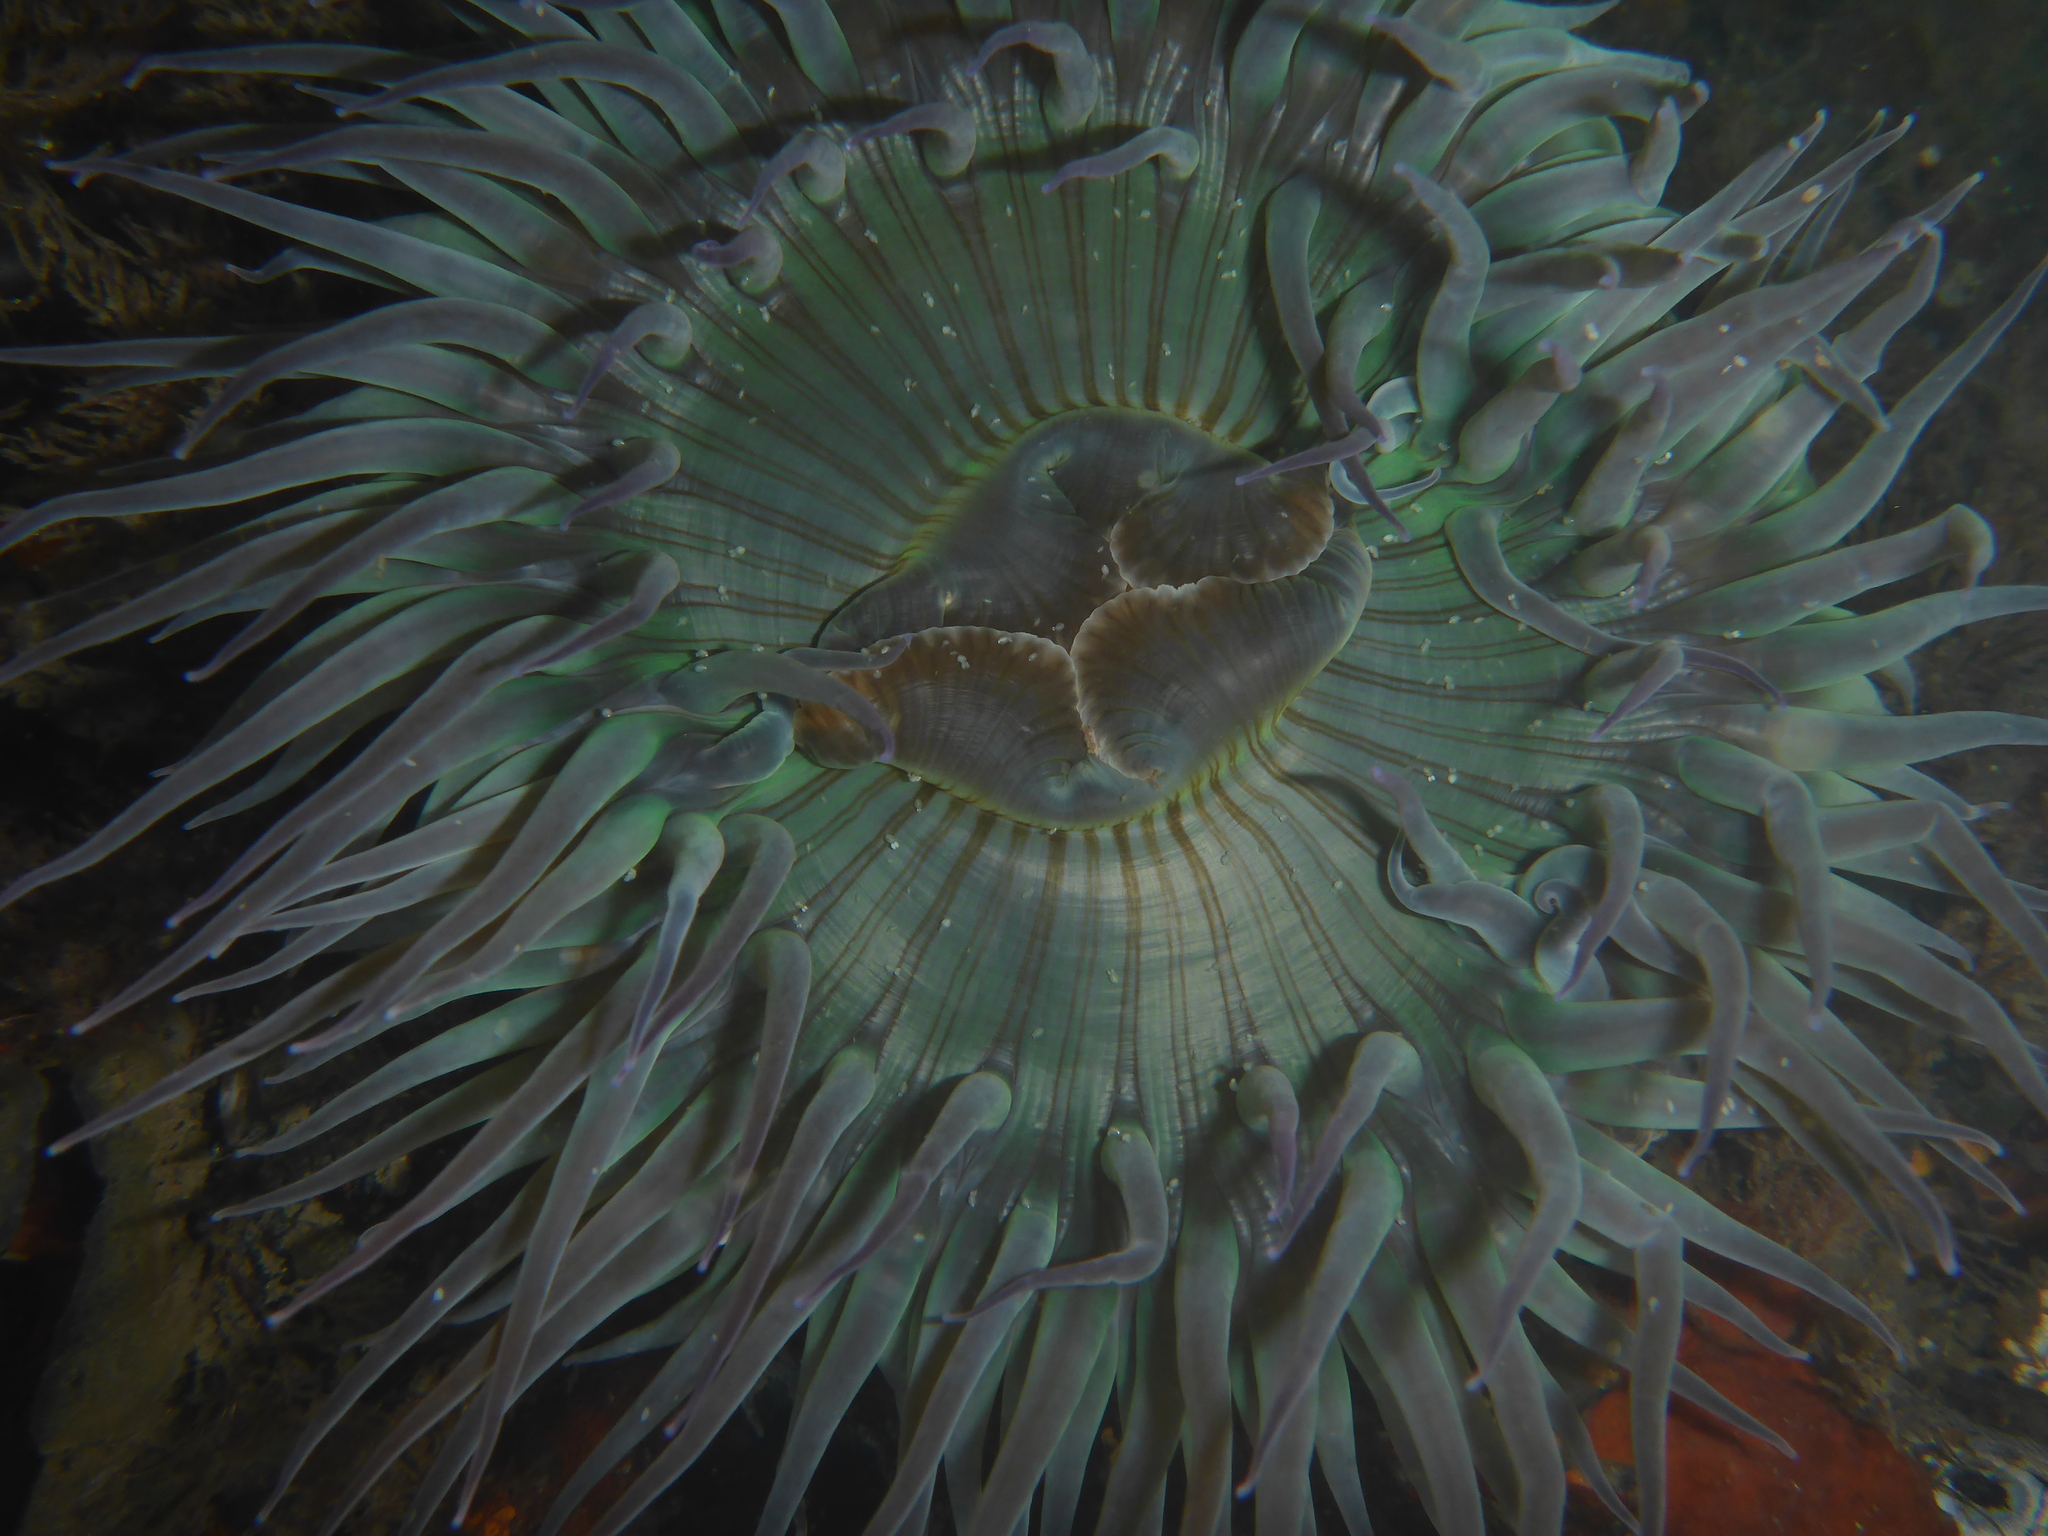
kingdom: Animalia
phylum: Cnidaria
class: Anthozoa
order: Actiniaria
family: Actiniidae
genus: Anthopleura
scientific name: Anthopleura sola
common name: Sun anemone
